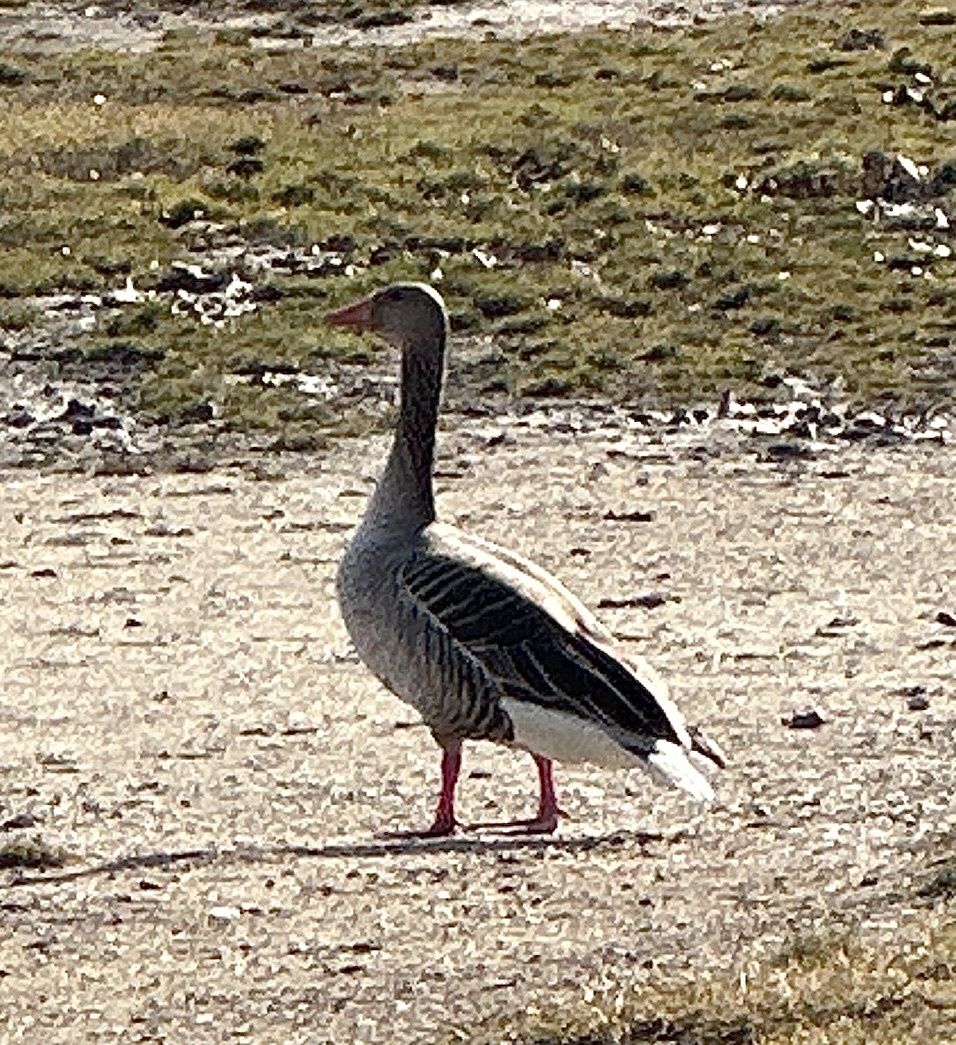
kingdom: Animalia
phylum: Chordata
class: Aves
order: Anseriformes
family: Anatidae
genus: Anser
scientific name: Anser anser
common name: Greylag goose
